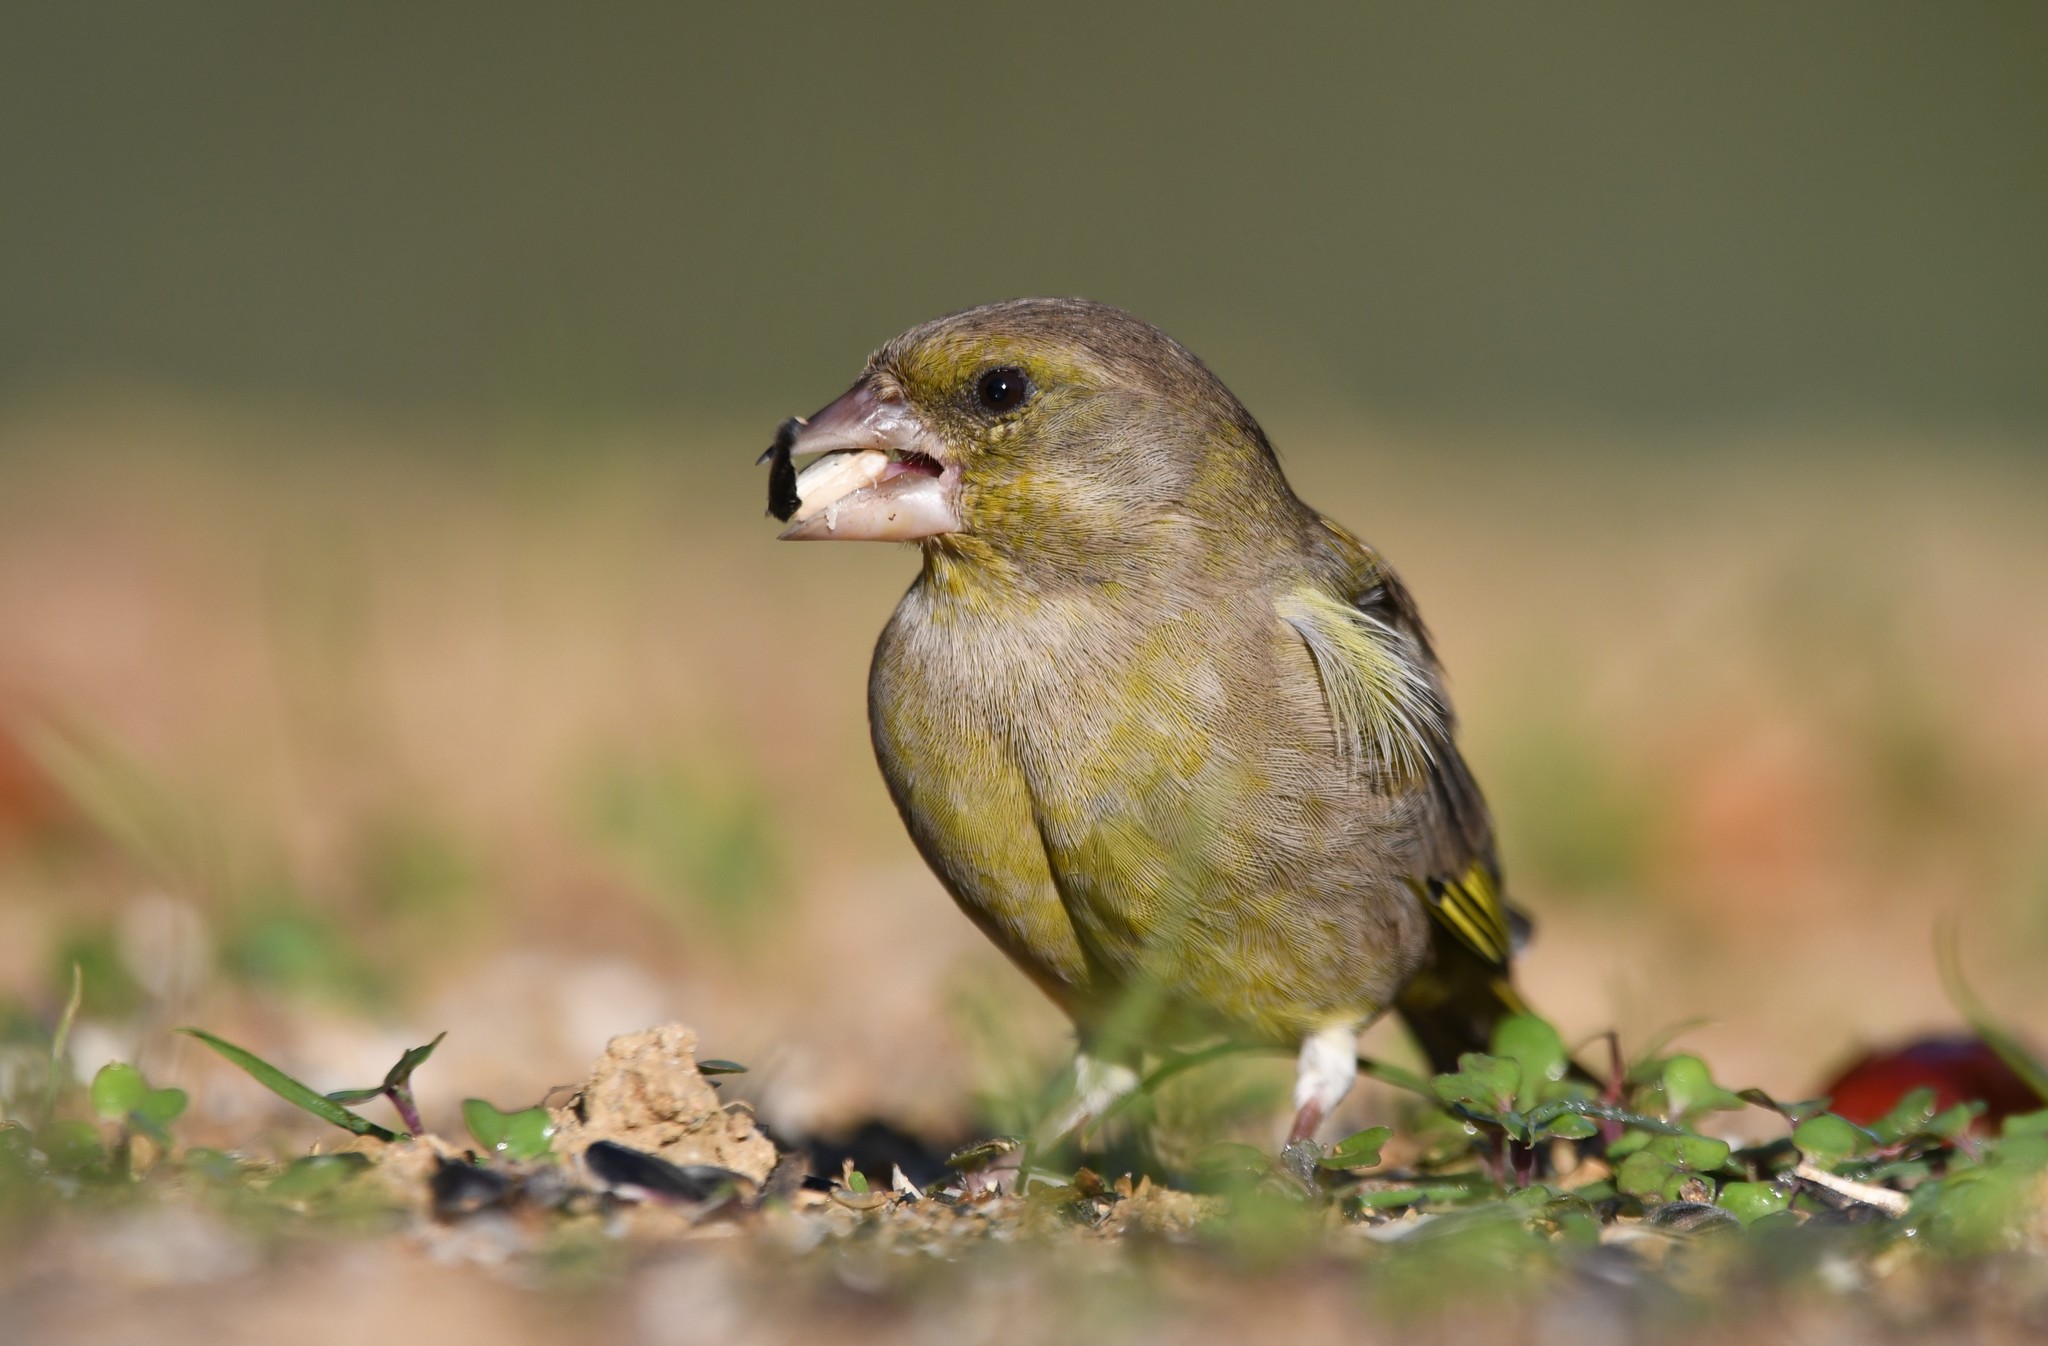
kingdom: Plantae
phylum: Tracheophyta
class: Liliopsida
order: Poales
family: Poaceae
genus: Chloris
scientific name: Chloris chloris
